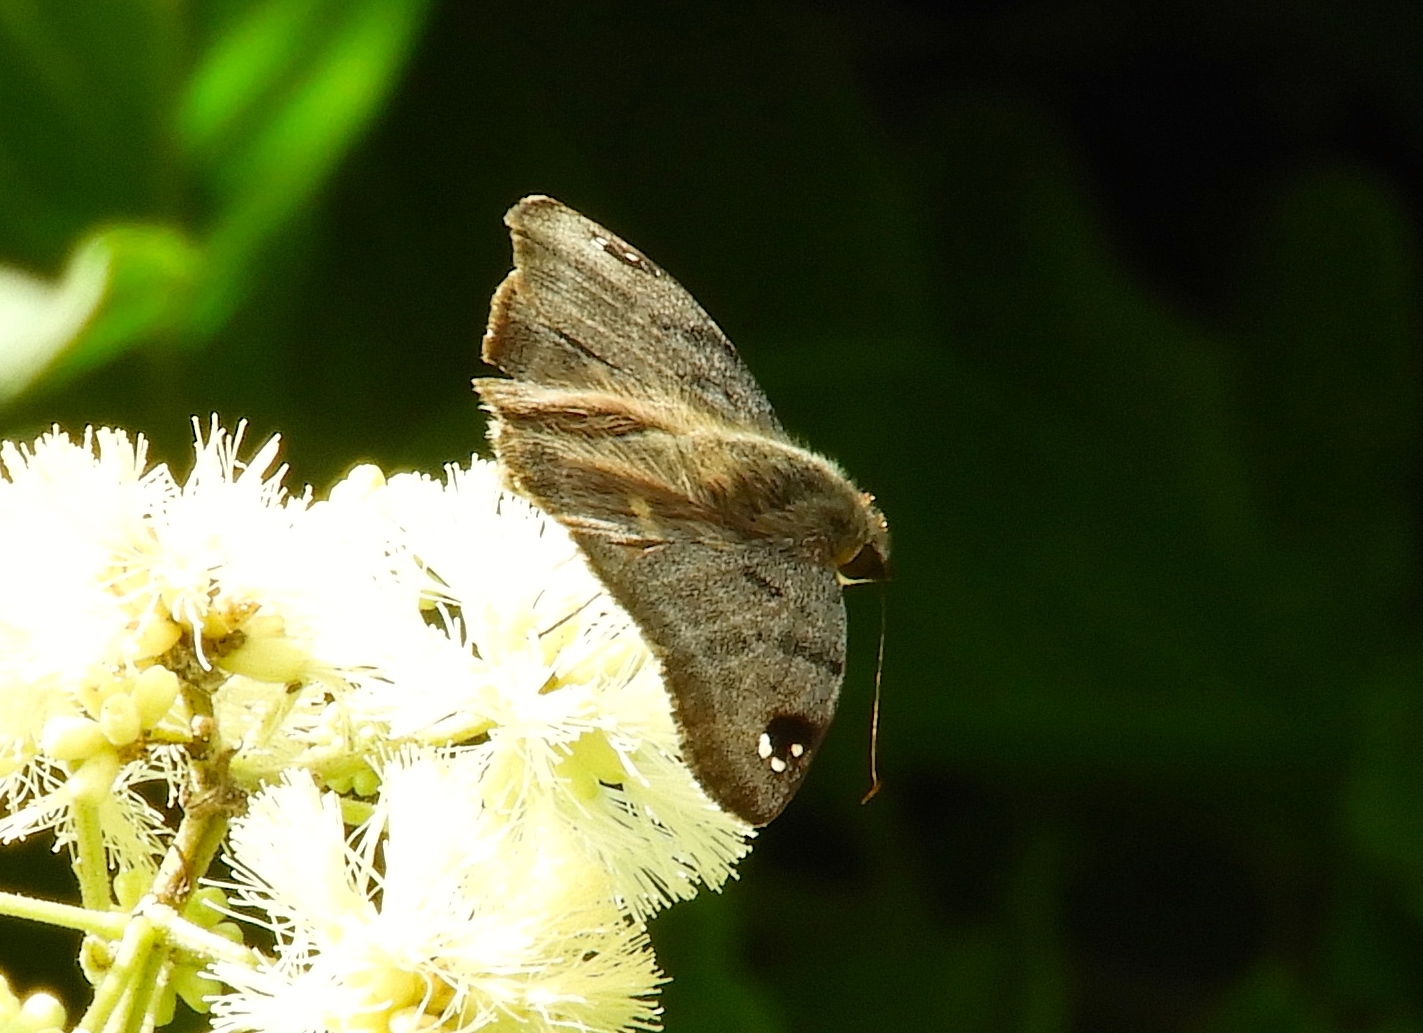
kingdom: Animalia
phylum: Arthropoda
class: Insecta
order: Lepidoptera
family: Hesperiidae
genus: Arteurotia
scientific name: Arteurotia tractipennis
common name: Starred skipper
